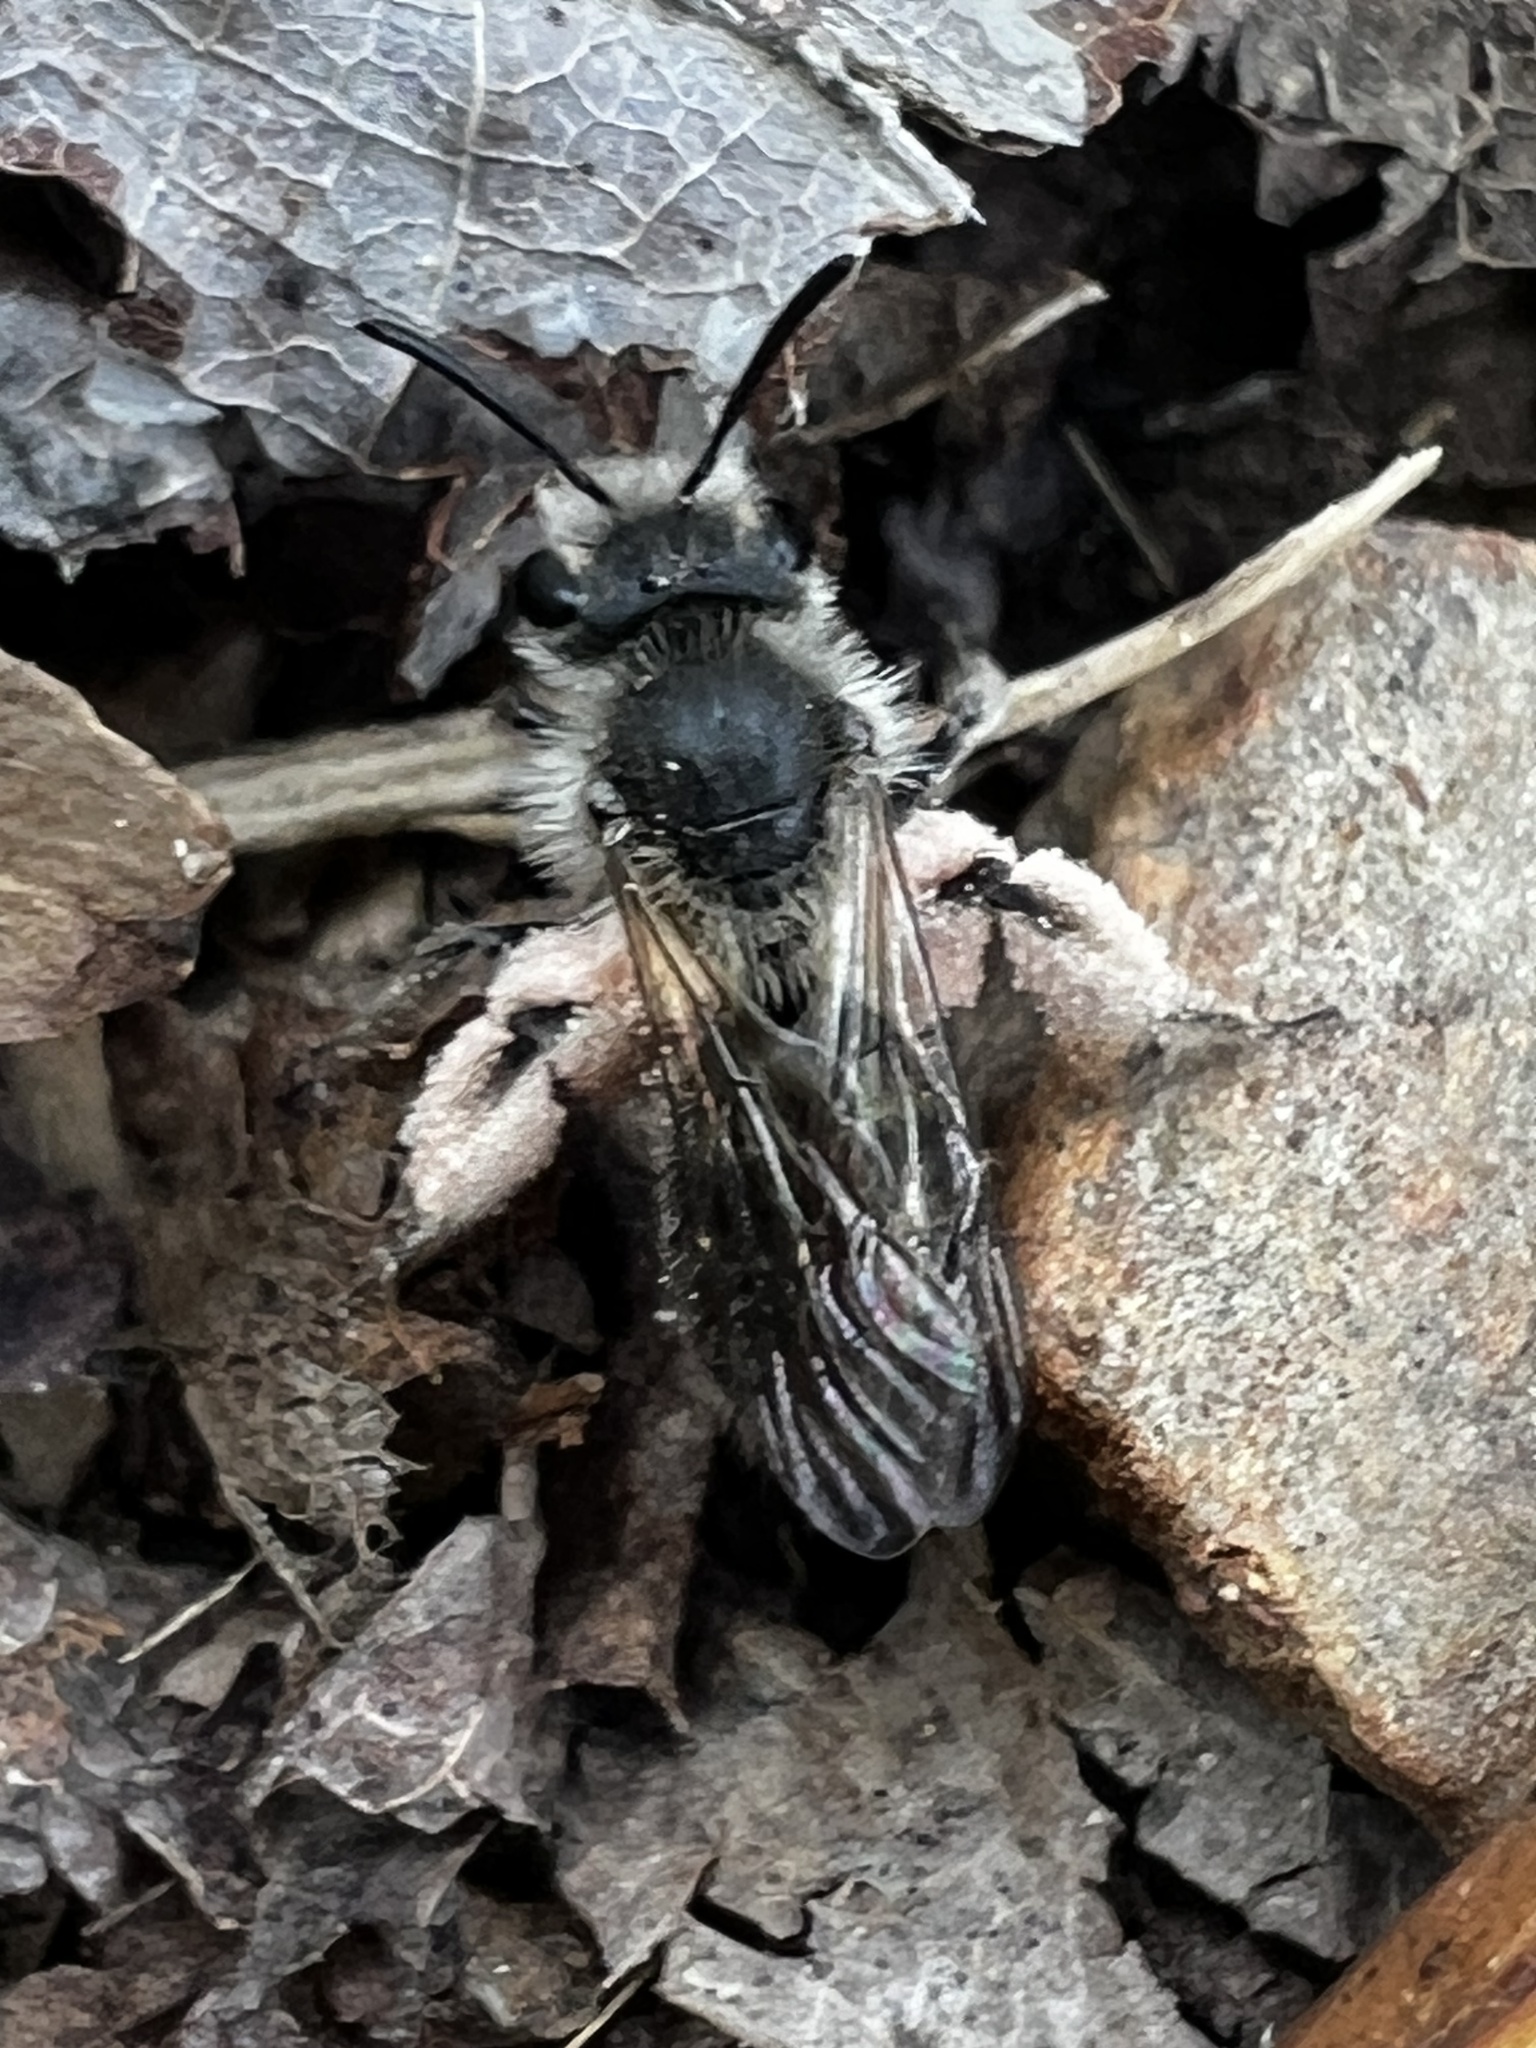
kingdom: Animalia
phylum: Arthropoda
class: Insecta
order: Hymenoptera
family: Andrenidae
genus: Andrena
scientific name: Andrena erigeniae
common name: Spring beauty miner
